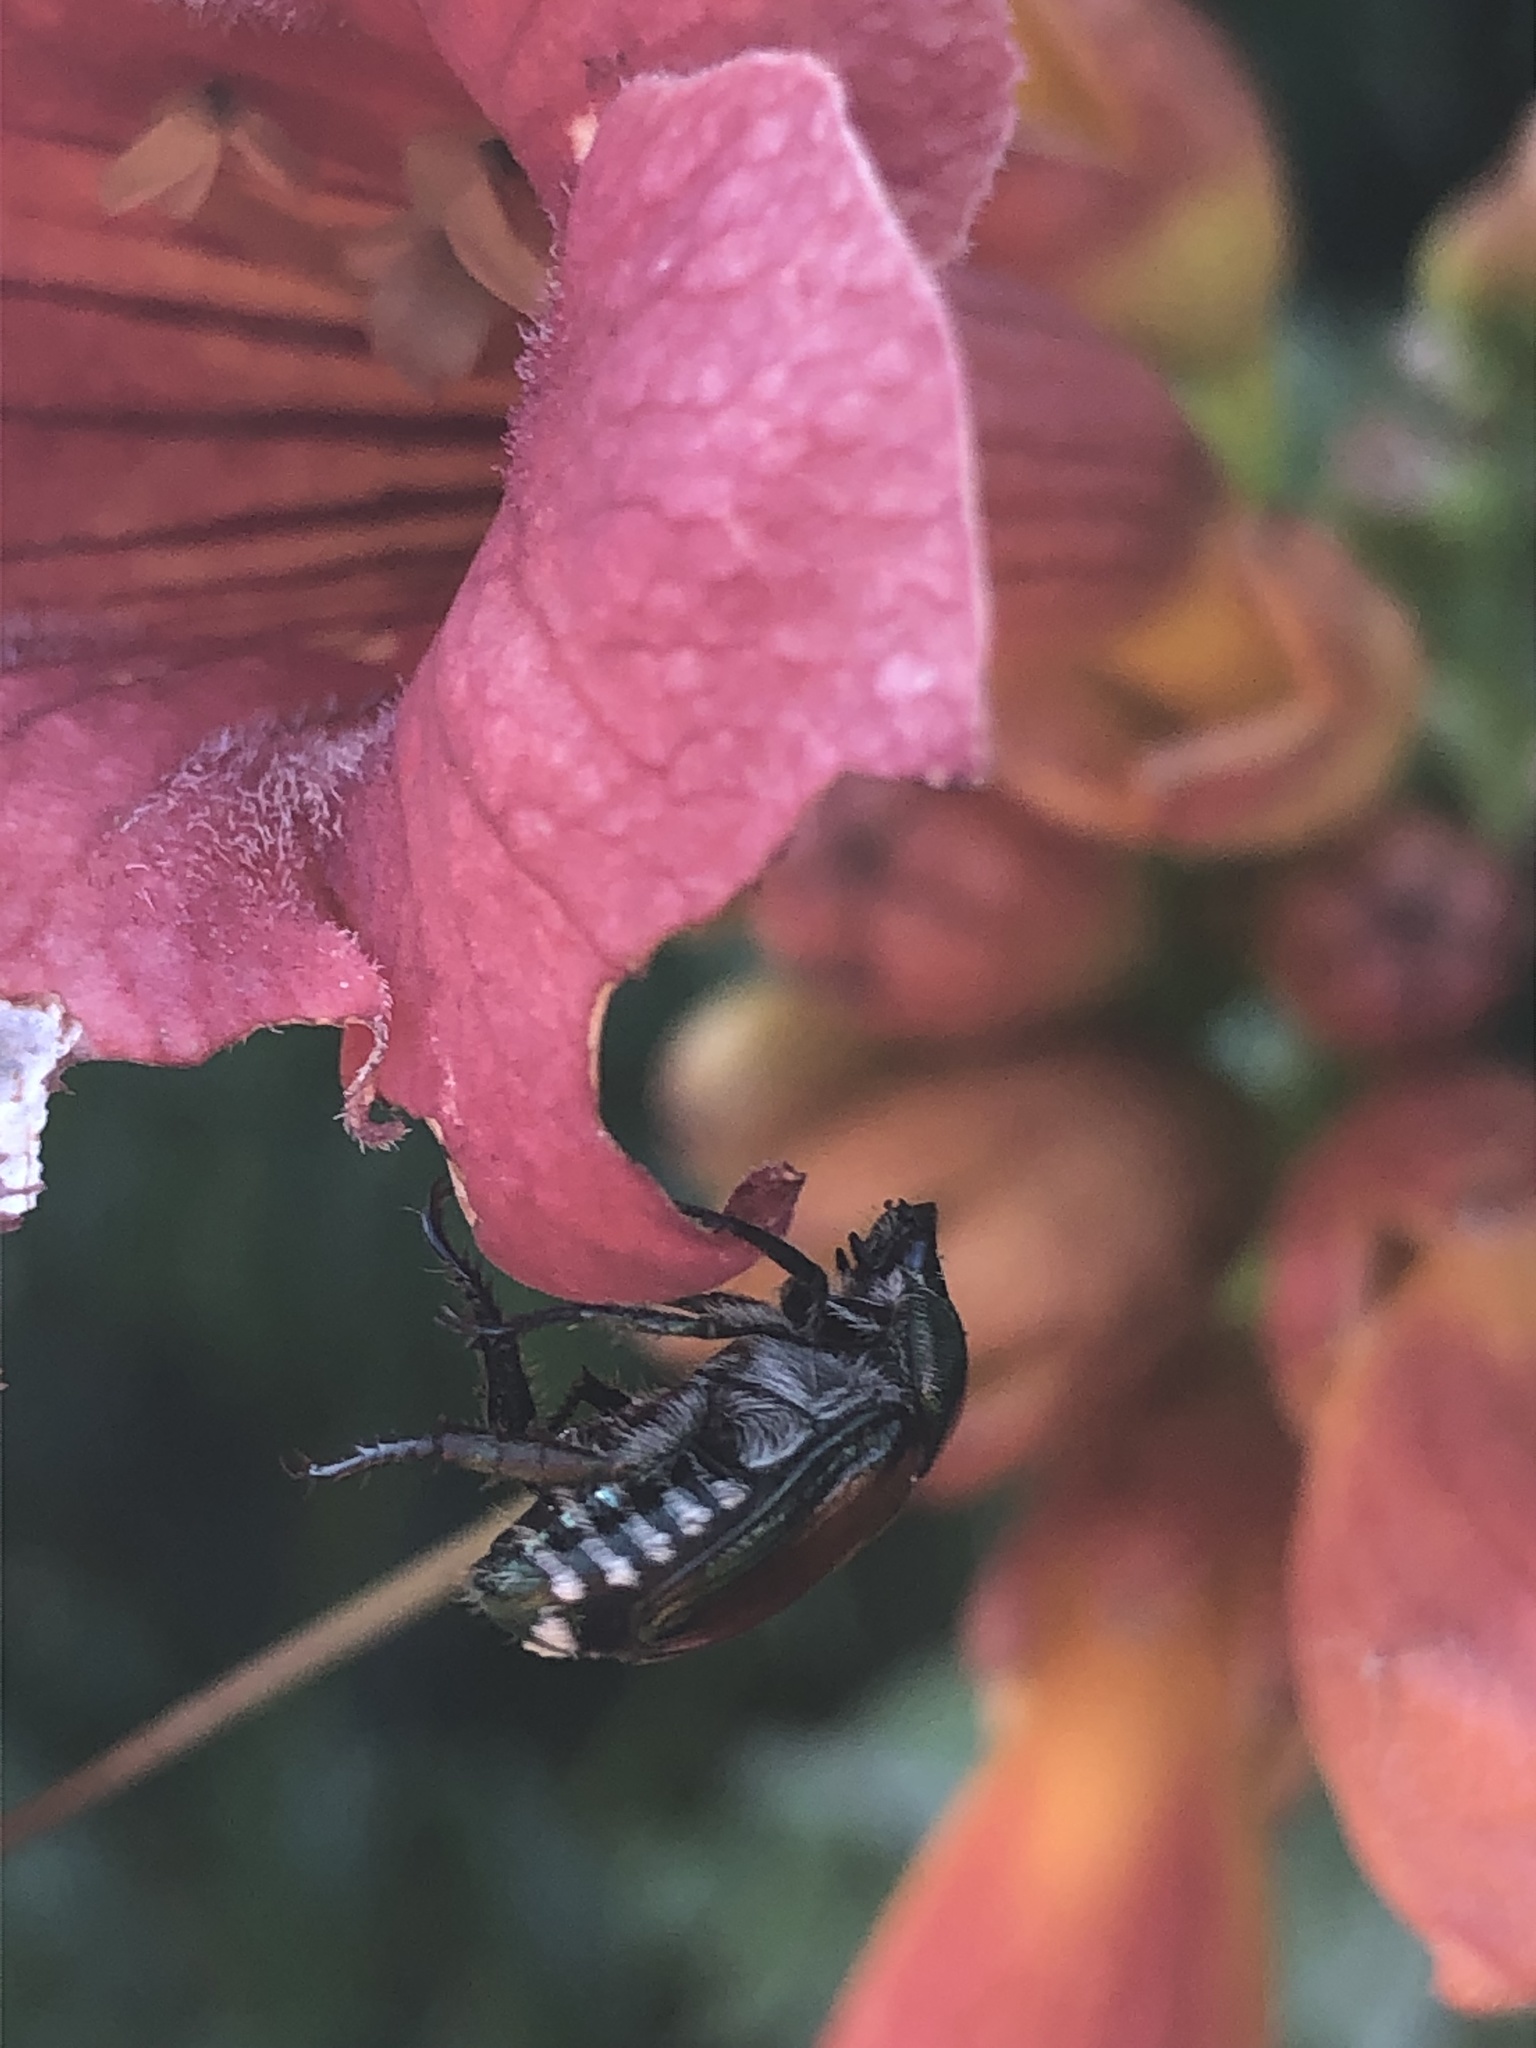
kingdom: Animalia
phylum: Arthropoda
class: Insecta
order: Coleoptera
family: Scarabaeidae
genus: Popillia
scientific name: Popillia japonica
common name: Japanese beetle
